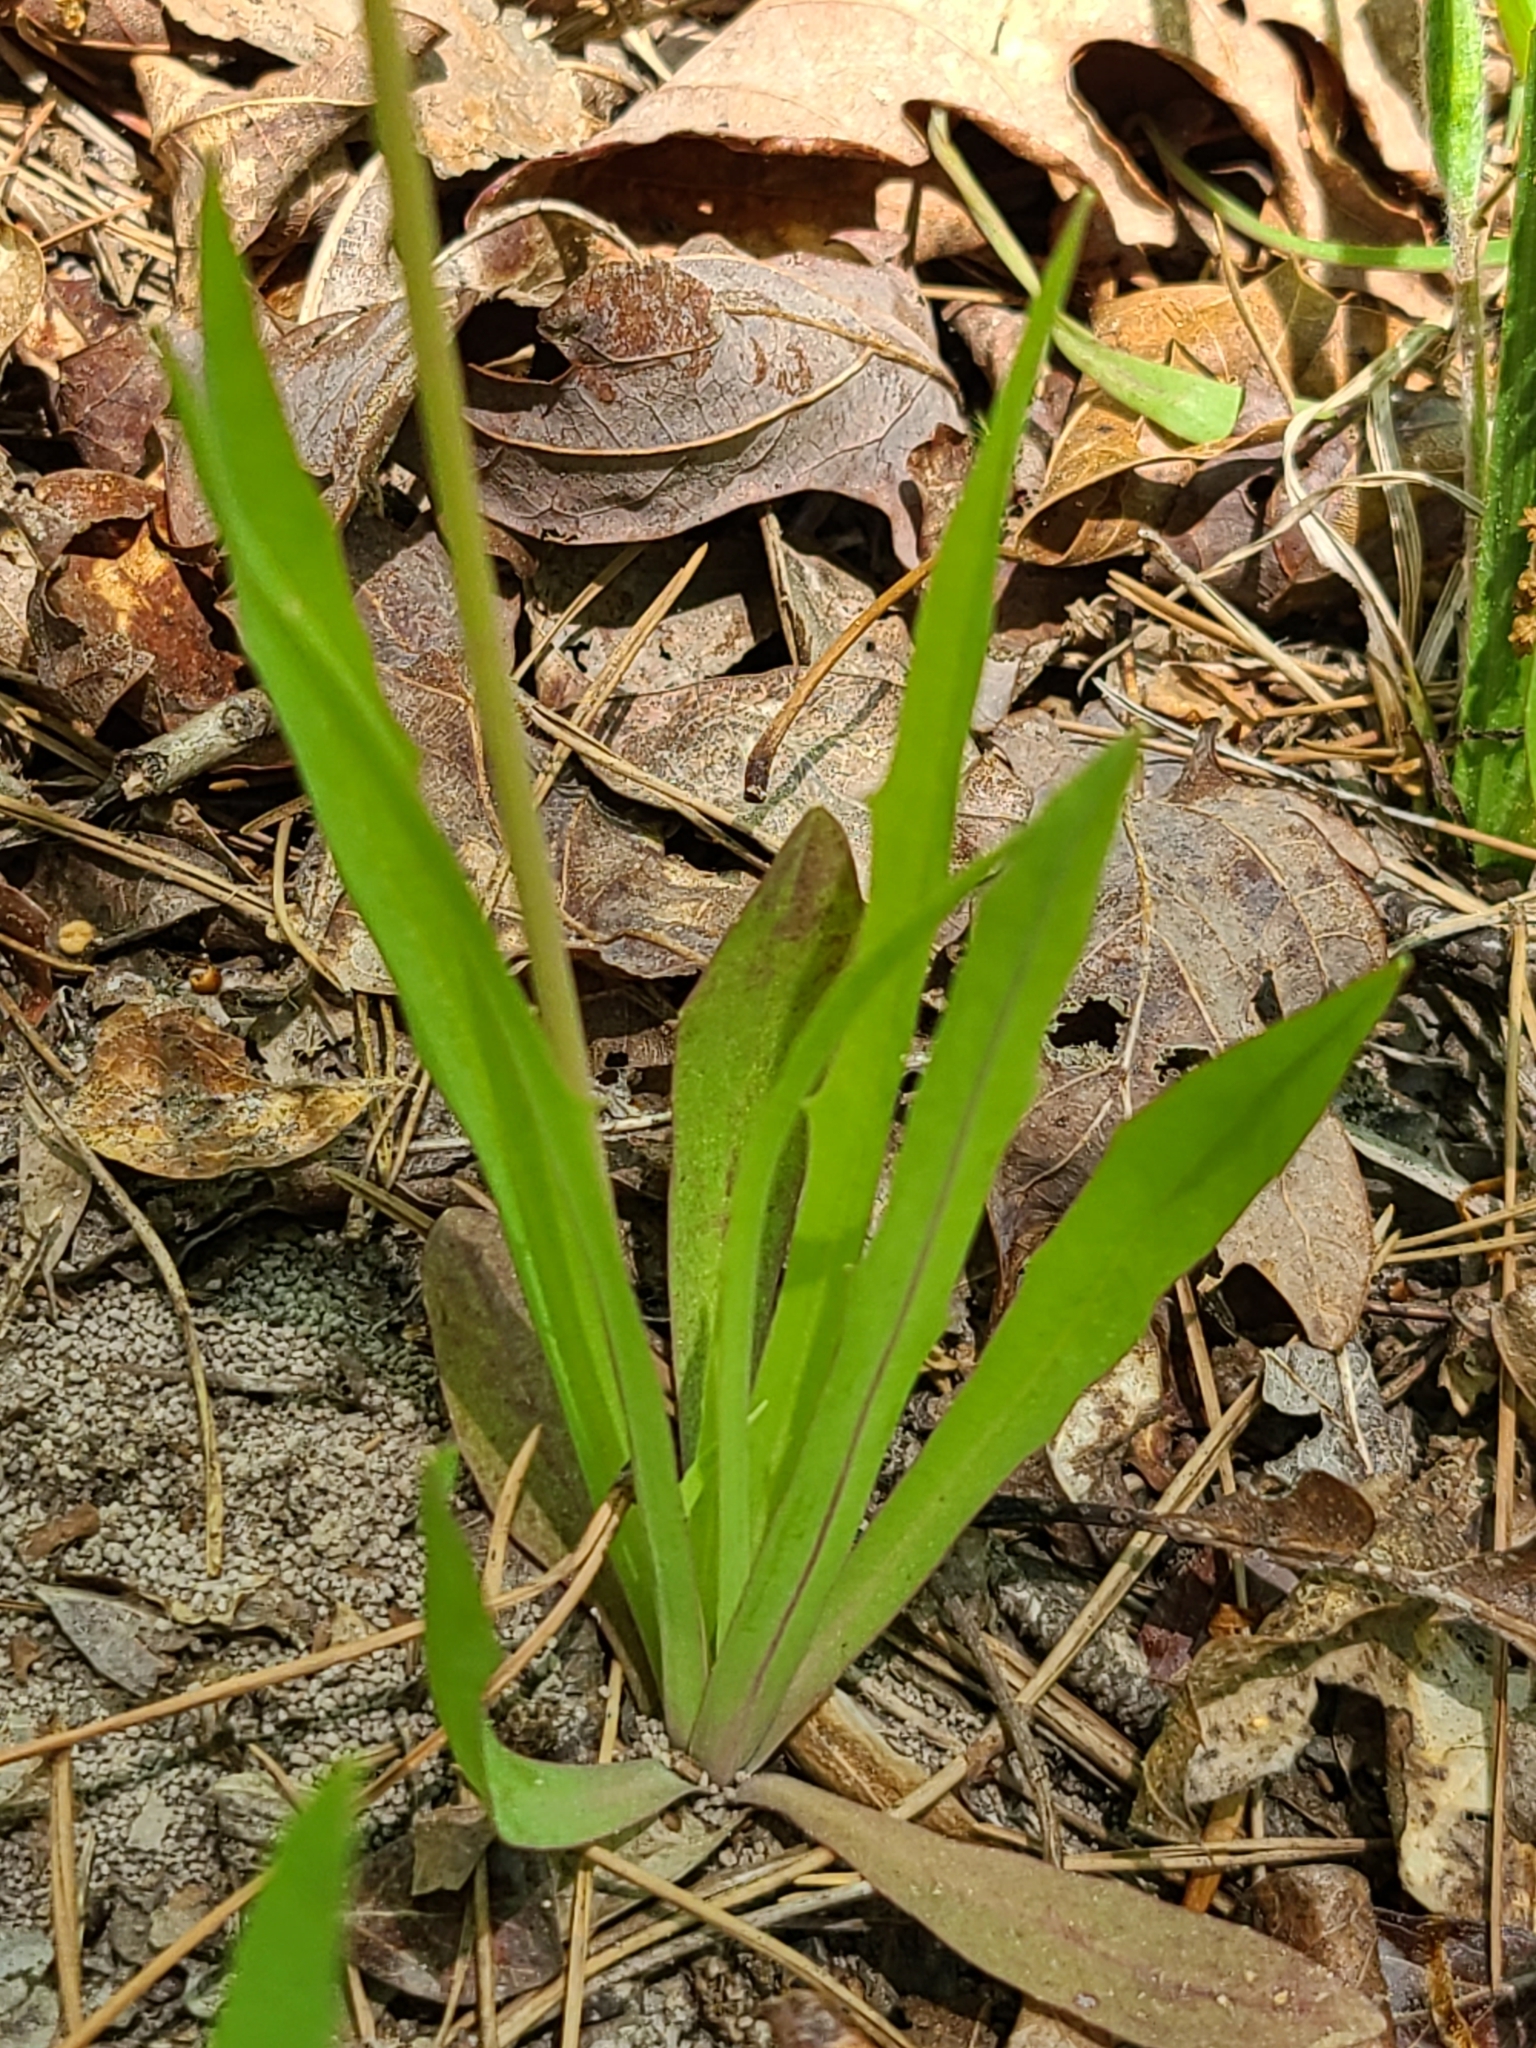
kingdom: Plantae
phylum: Tracheophyta
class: Magnoliopsida
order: Asterales
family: Asteraceae
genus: Krigia
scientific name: Krigia dandelion
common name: Colonial dwarf-dandelion
